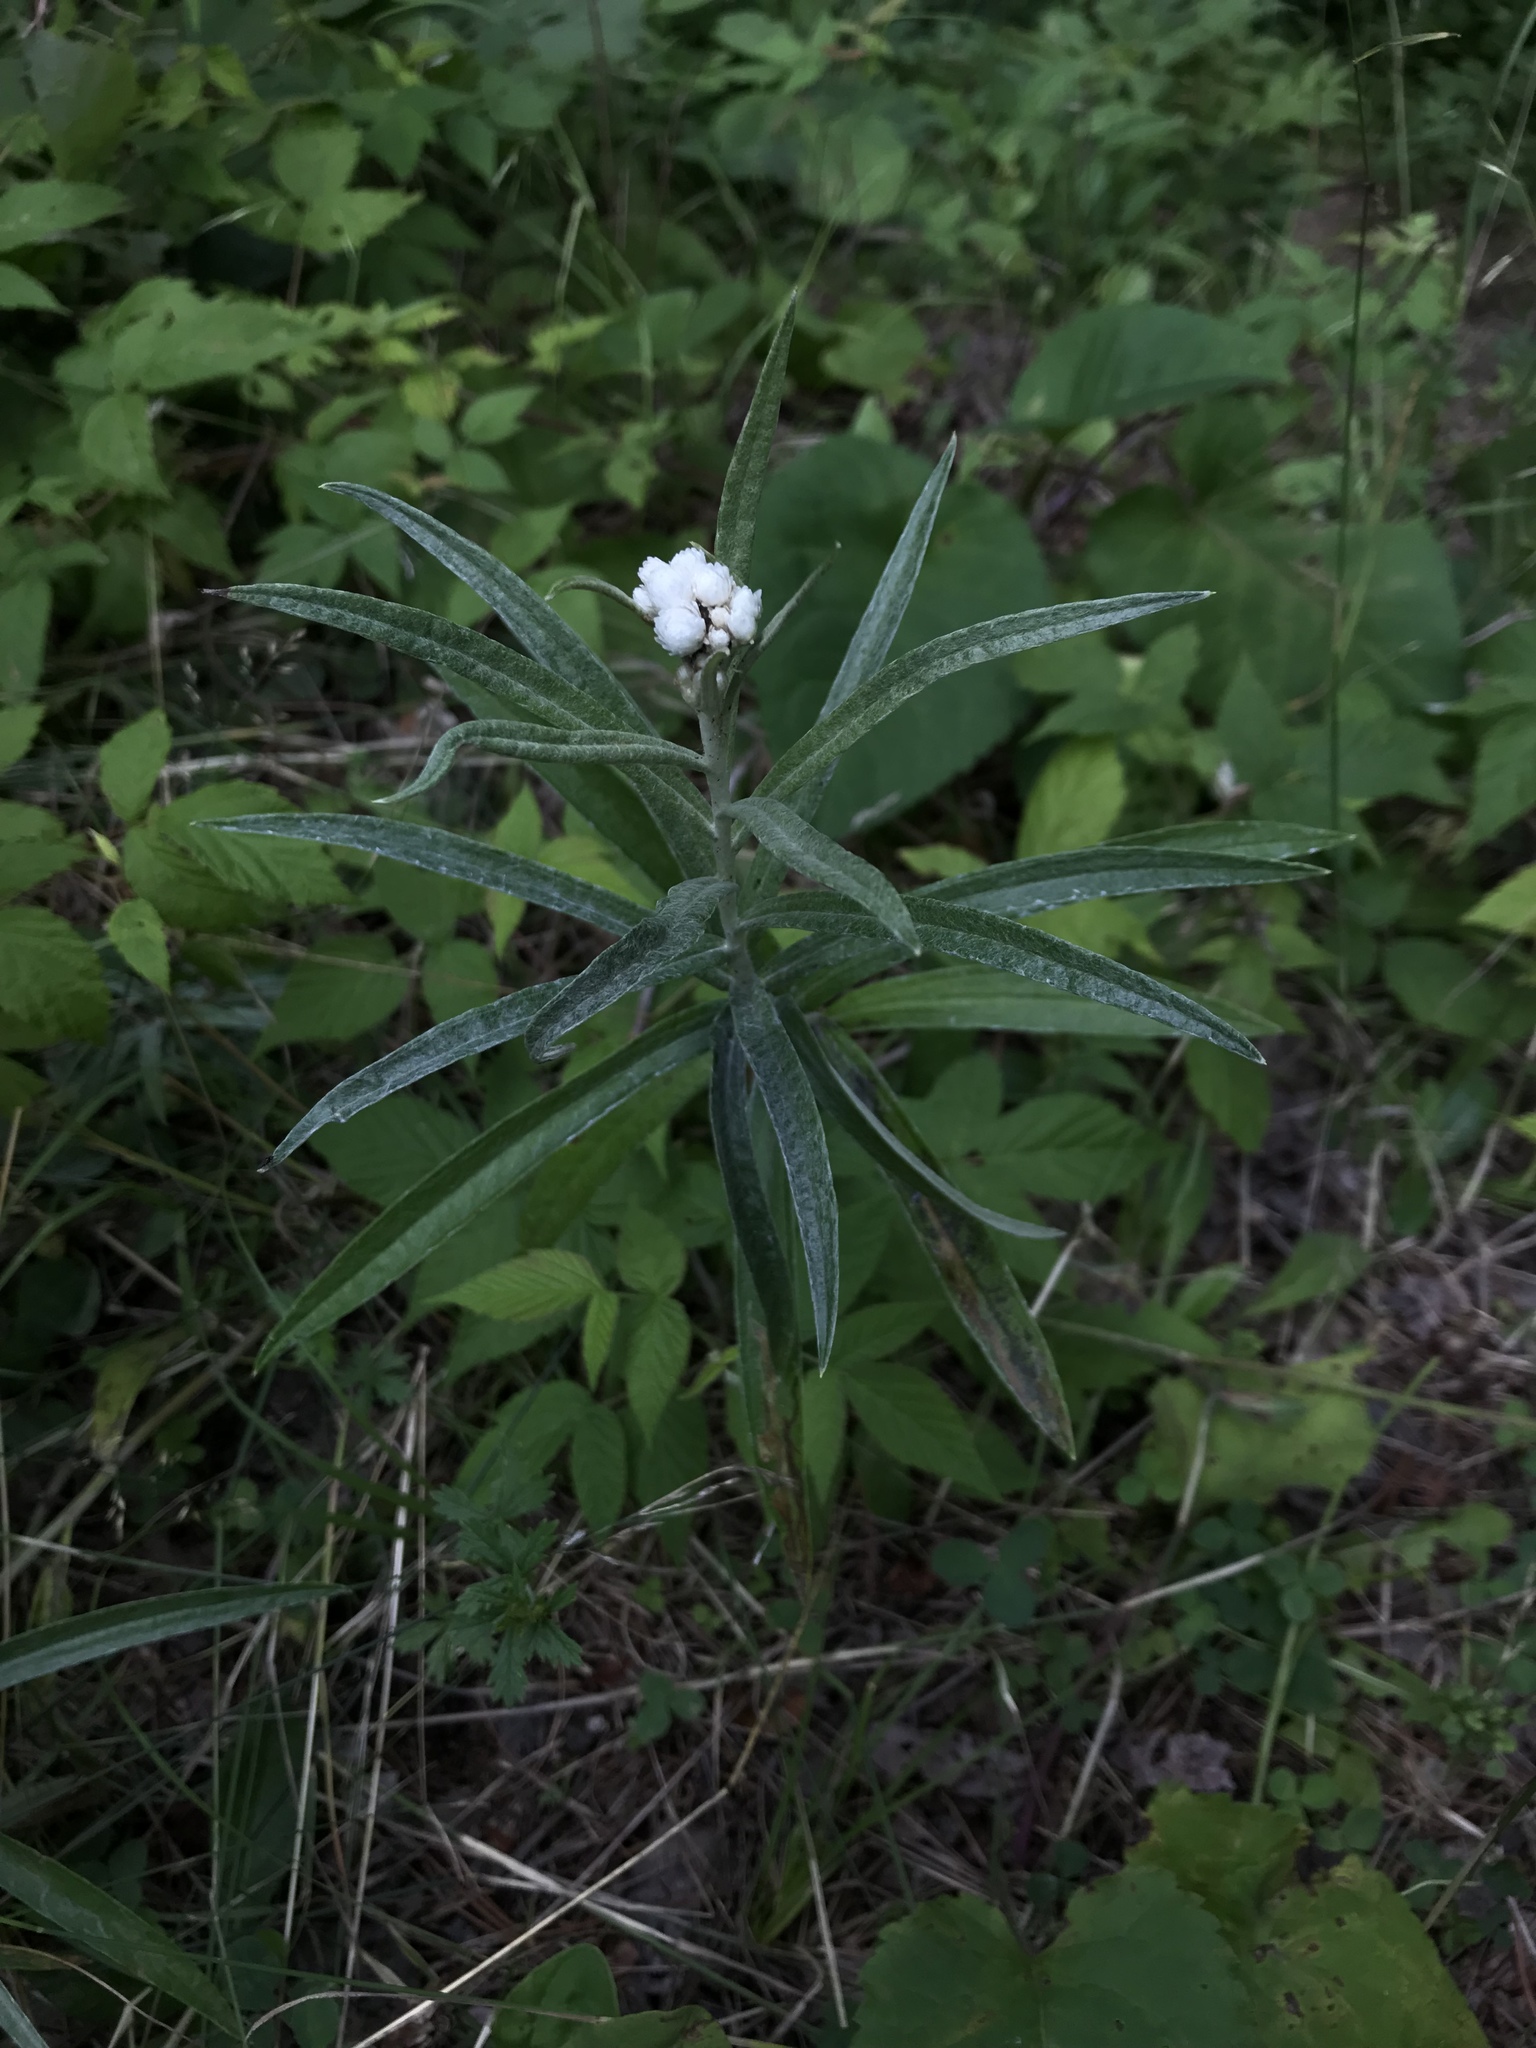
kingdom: Plantae
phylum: Tracheophyta
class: Magnoliopsida
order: Asterales
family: Asteraceae
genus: Anaphalis
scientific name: Anaphalis margaritacea
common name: Pearly everlasting
